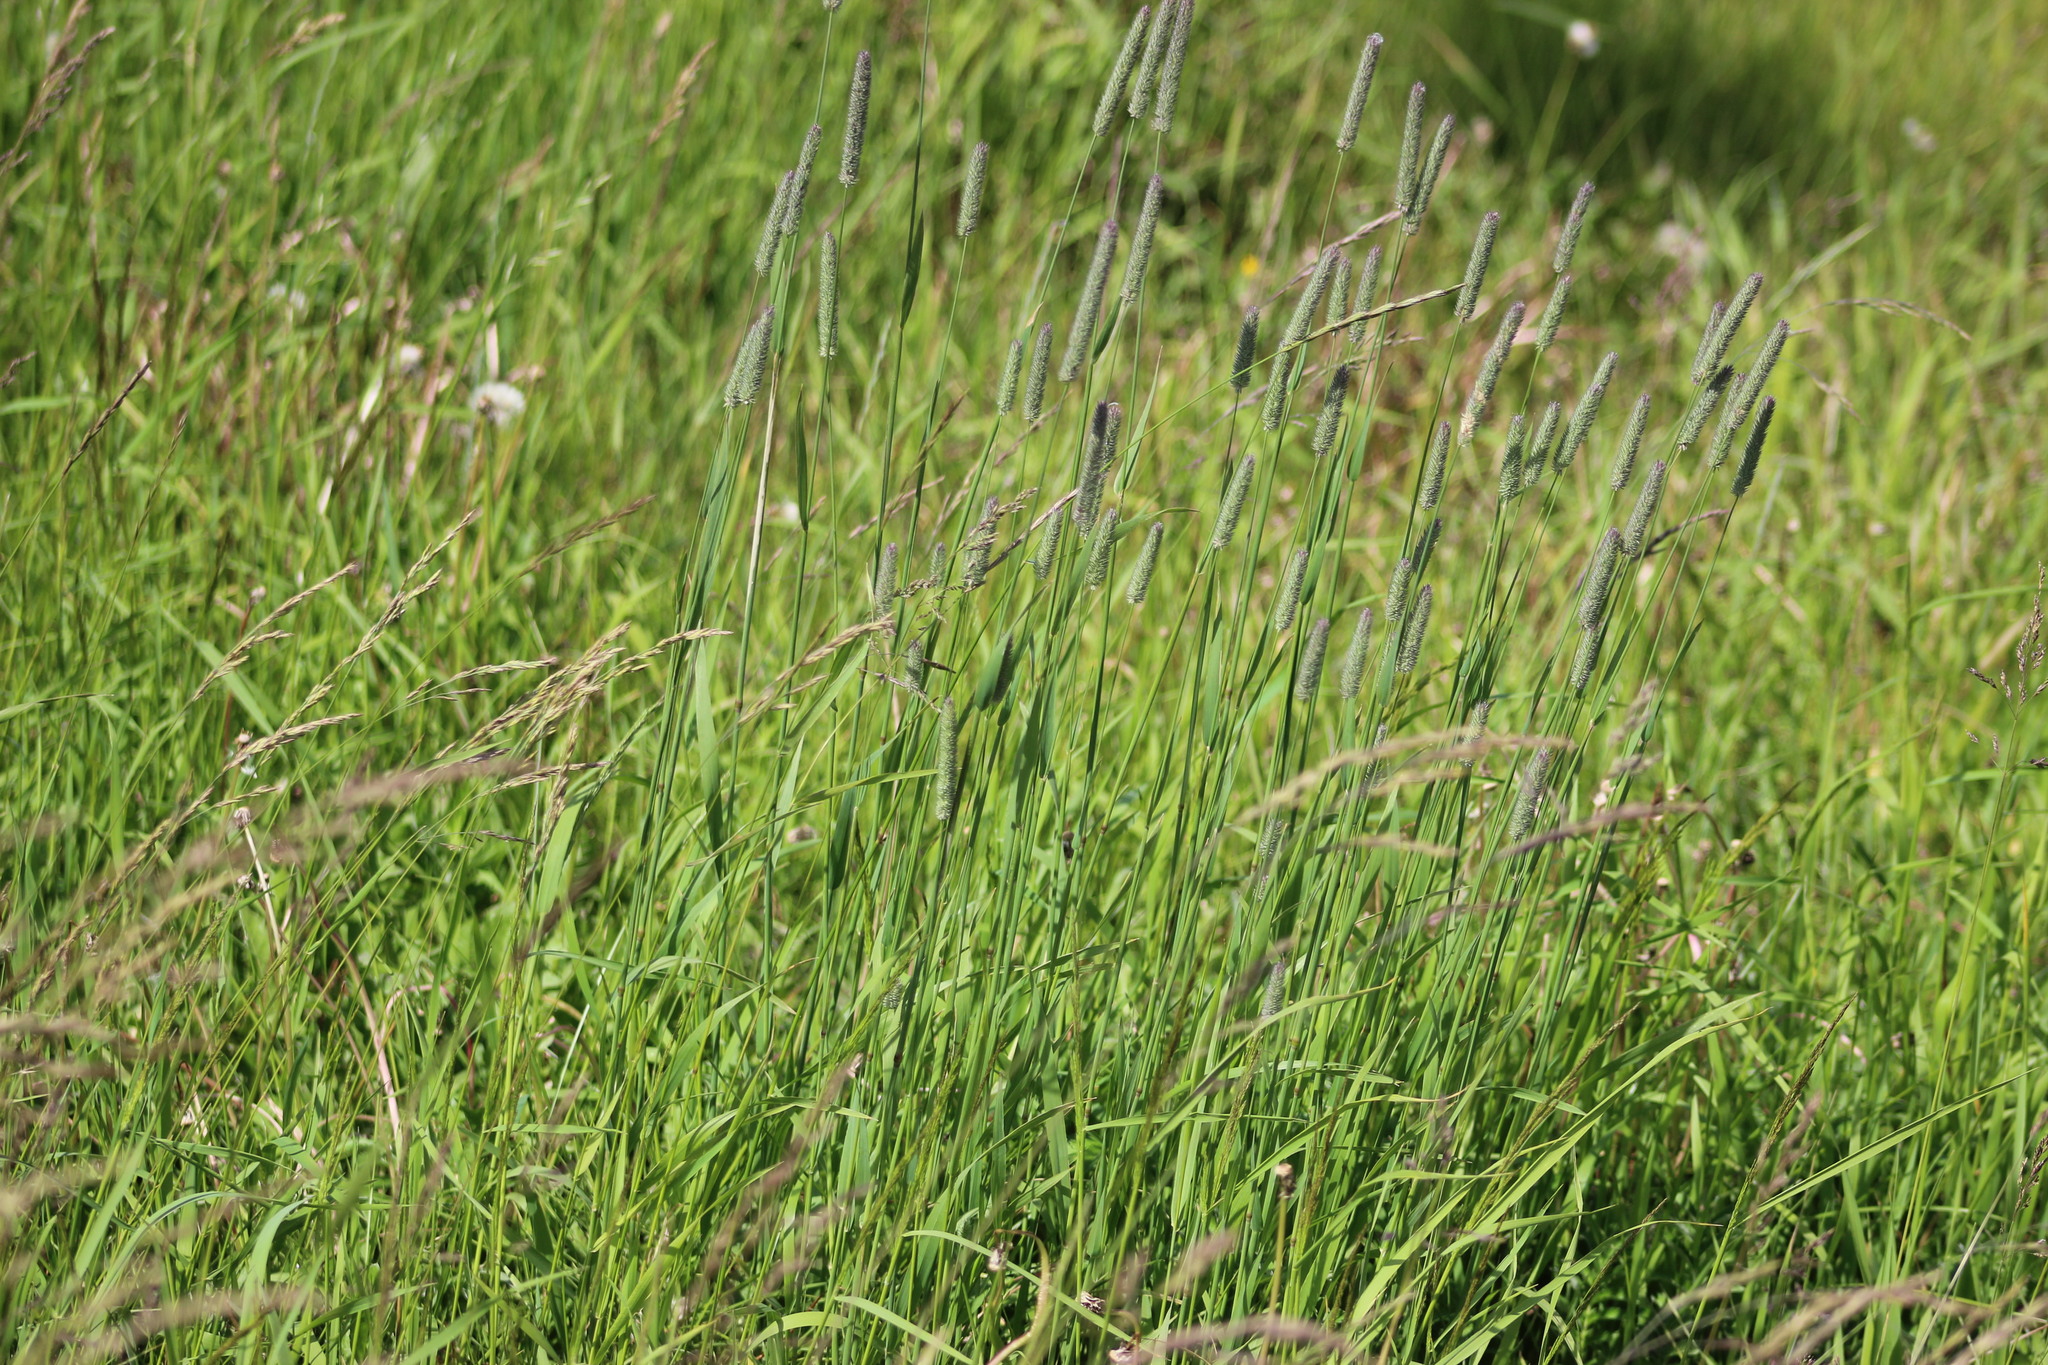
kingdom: Plantae
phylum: Tracheophyta
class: Liliopsida
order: Poales
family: Poaceae
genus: Phleum
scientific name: Phleum pratense
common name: Timothy grass
